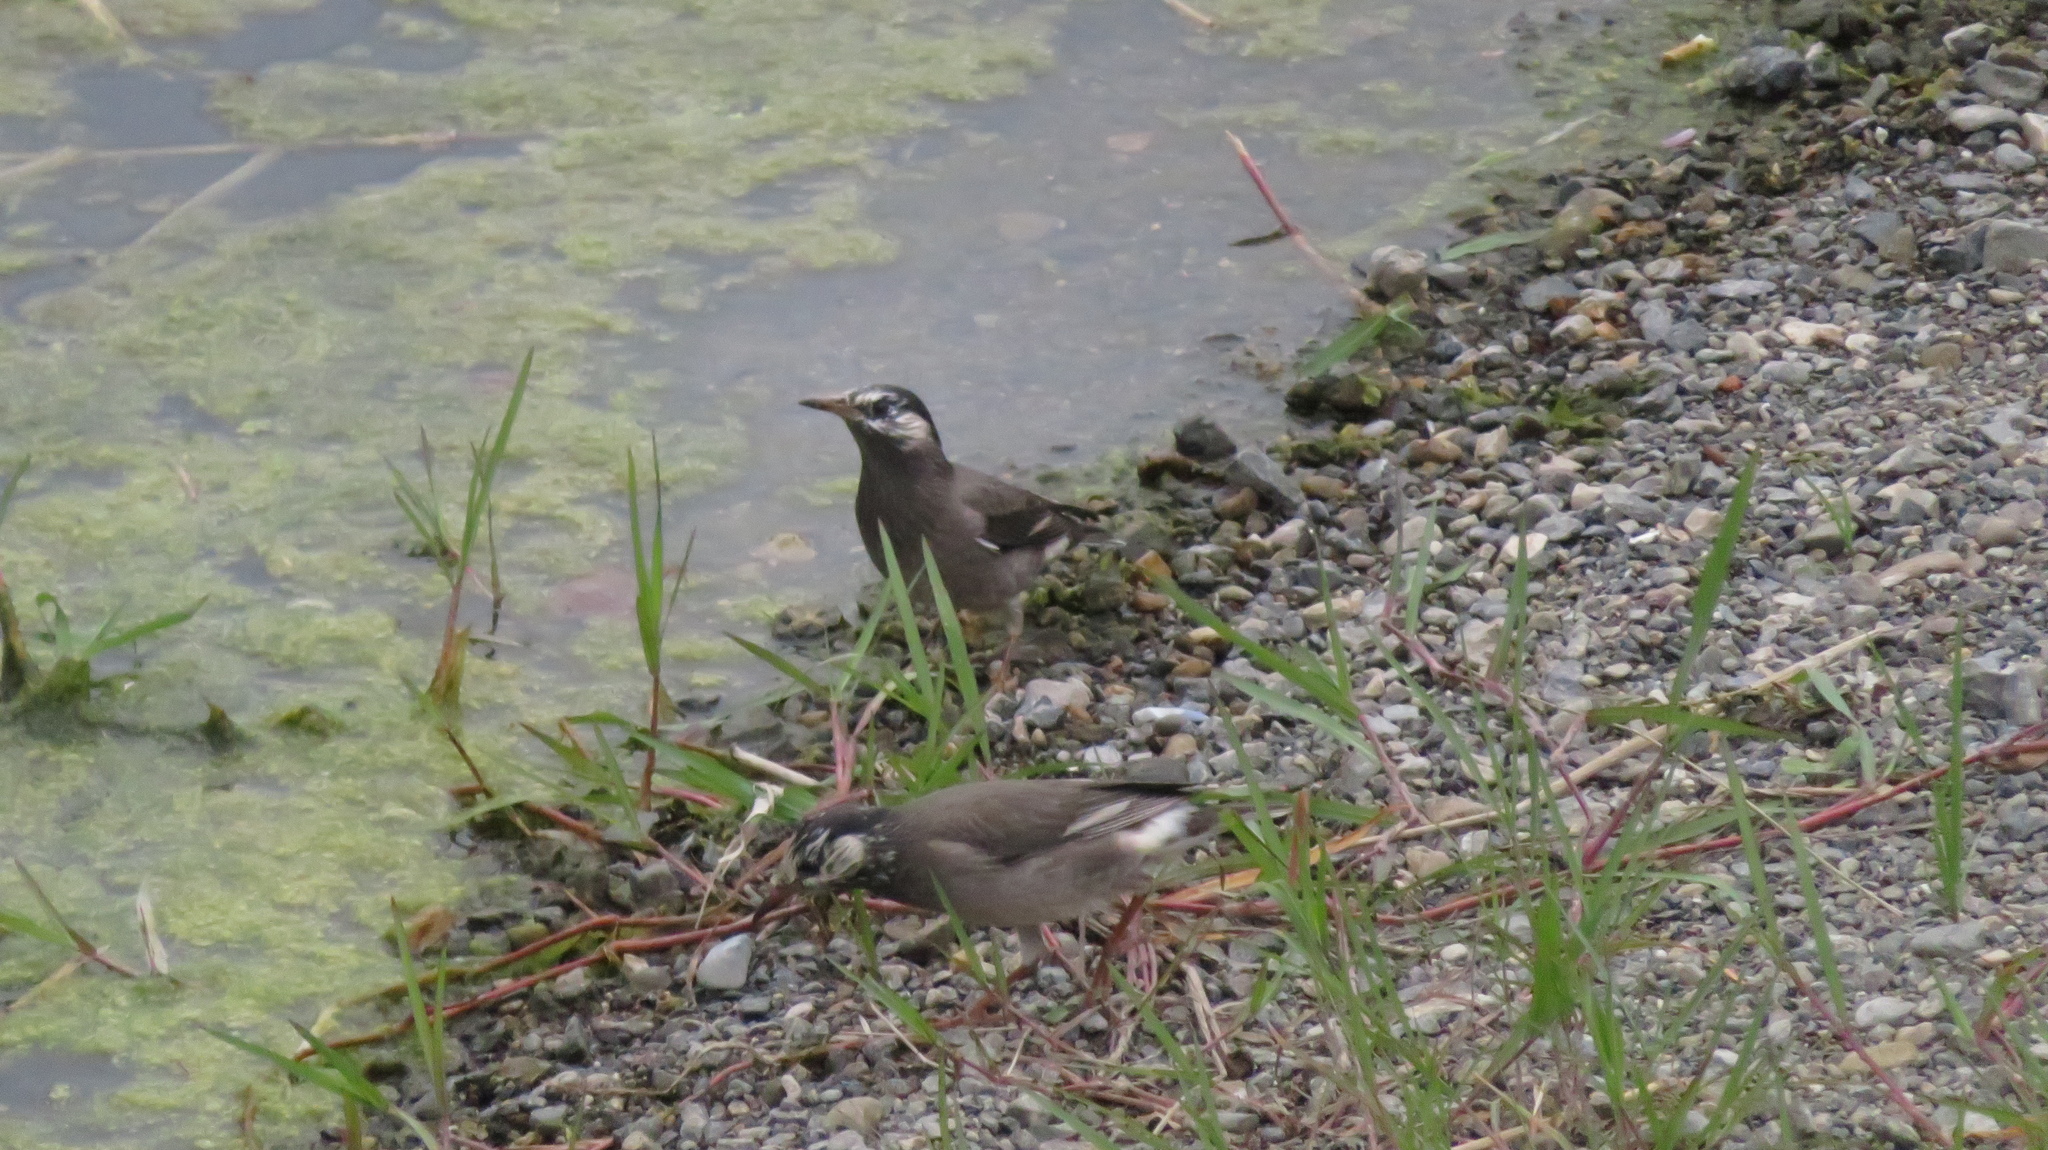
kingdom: Animalia
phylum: Chordata
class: Aves
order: Passeriformes
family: Sturnidae
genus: Spodiopsar
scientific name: Spodiopsar cineraceus
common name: White-cheeked starling
